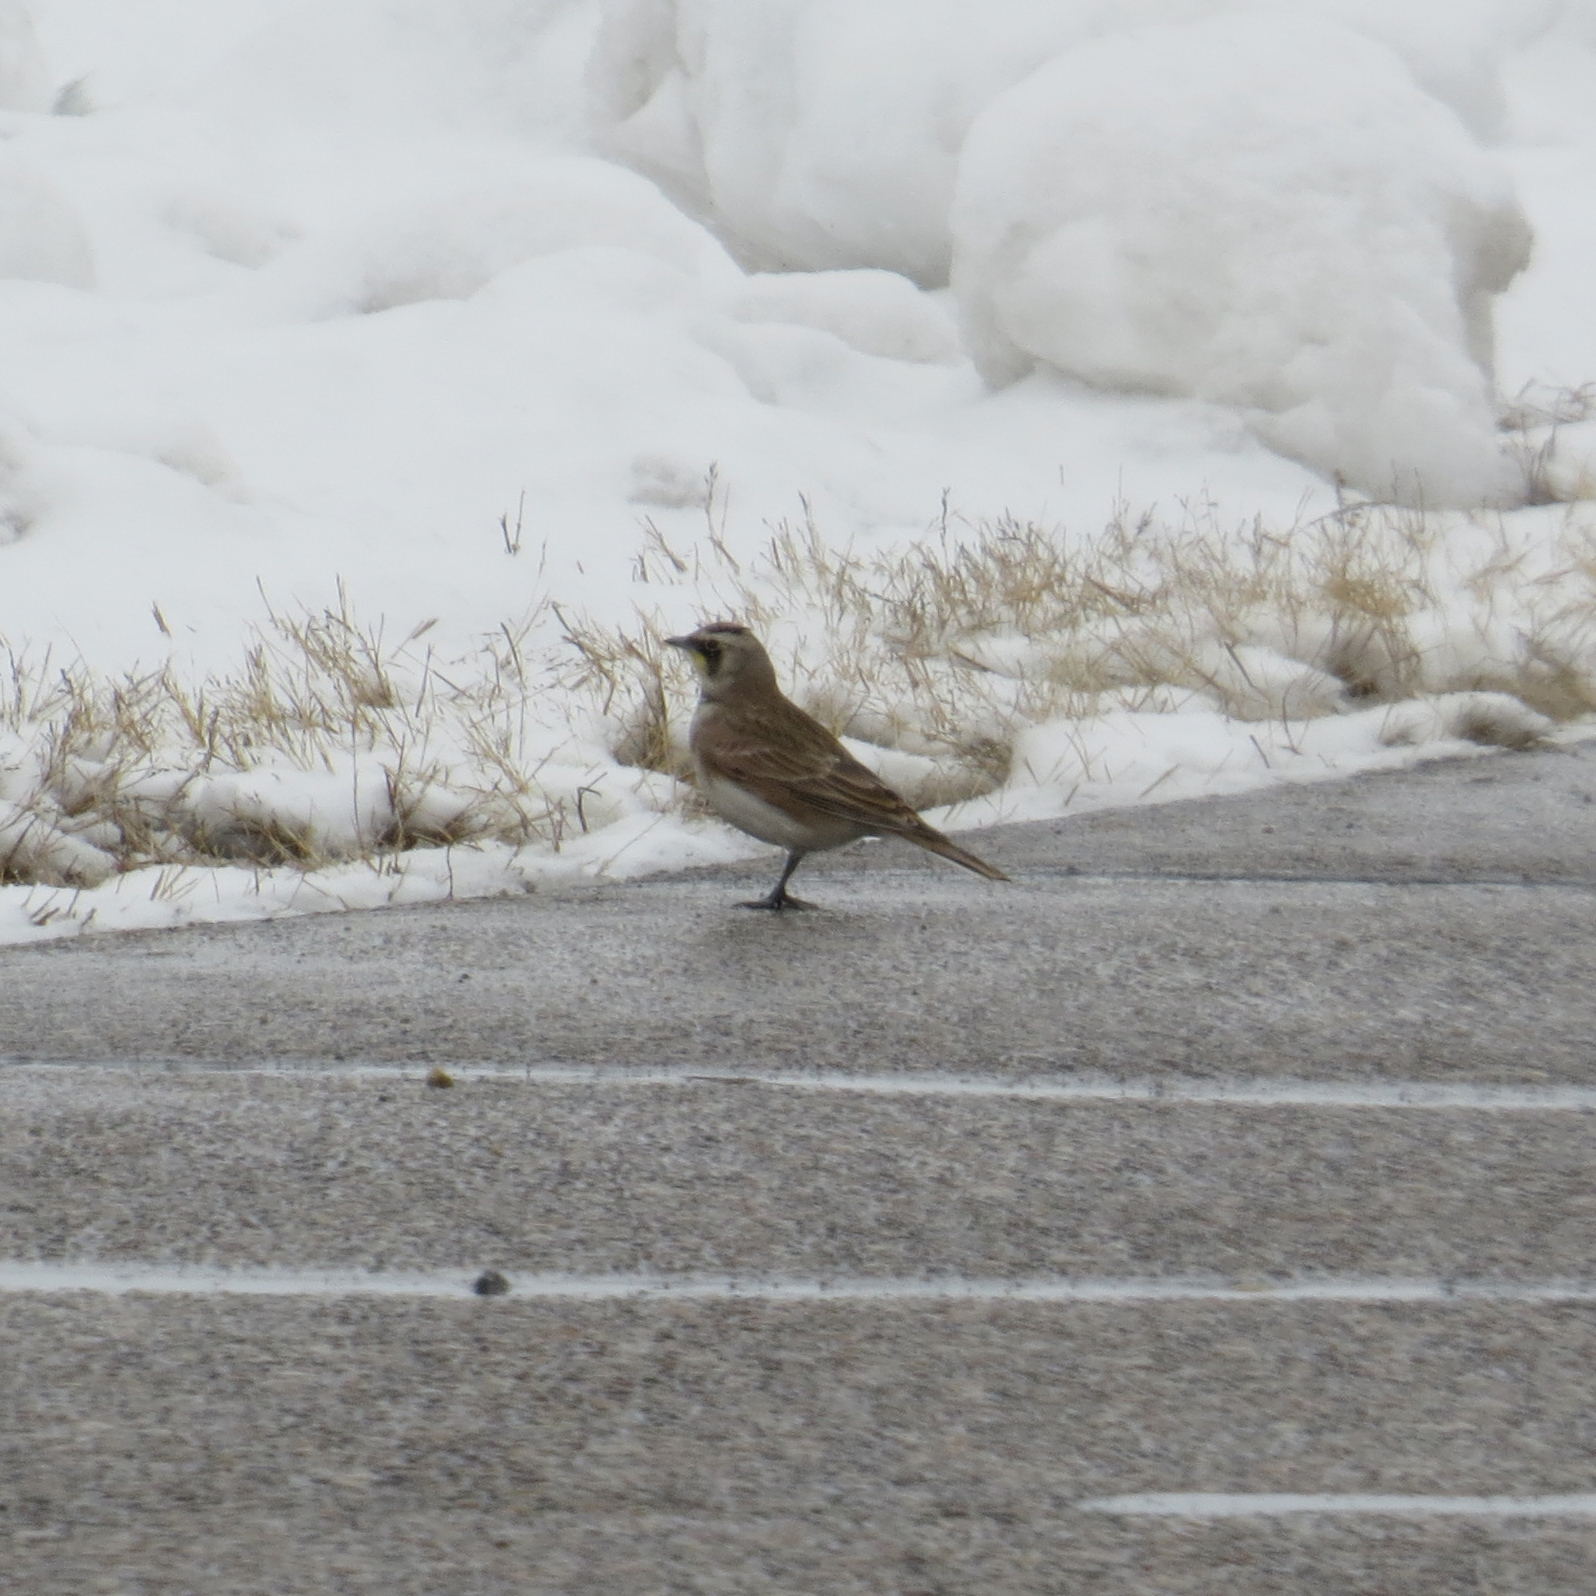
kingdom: Animalia
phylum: Chordata
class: Aves
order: Passeriformes
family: Alaudidae
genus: Eremophila
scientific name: Eremophila alpestris
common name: Horned lark
